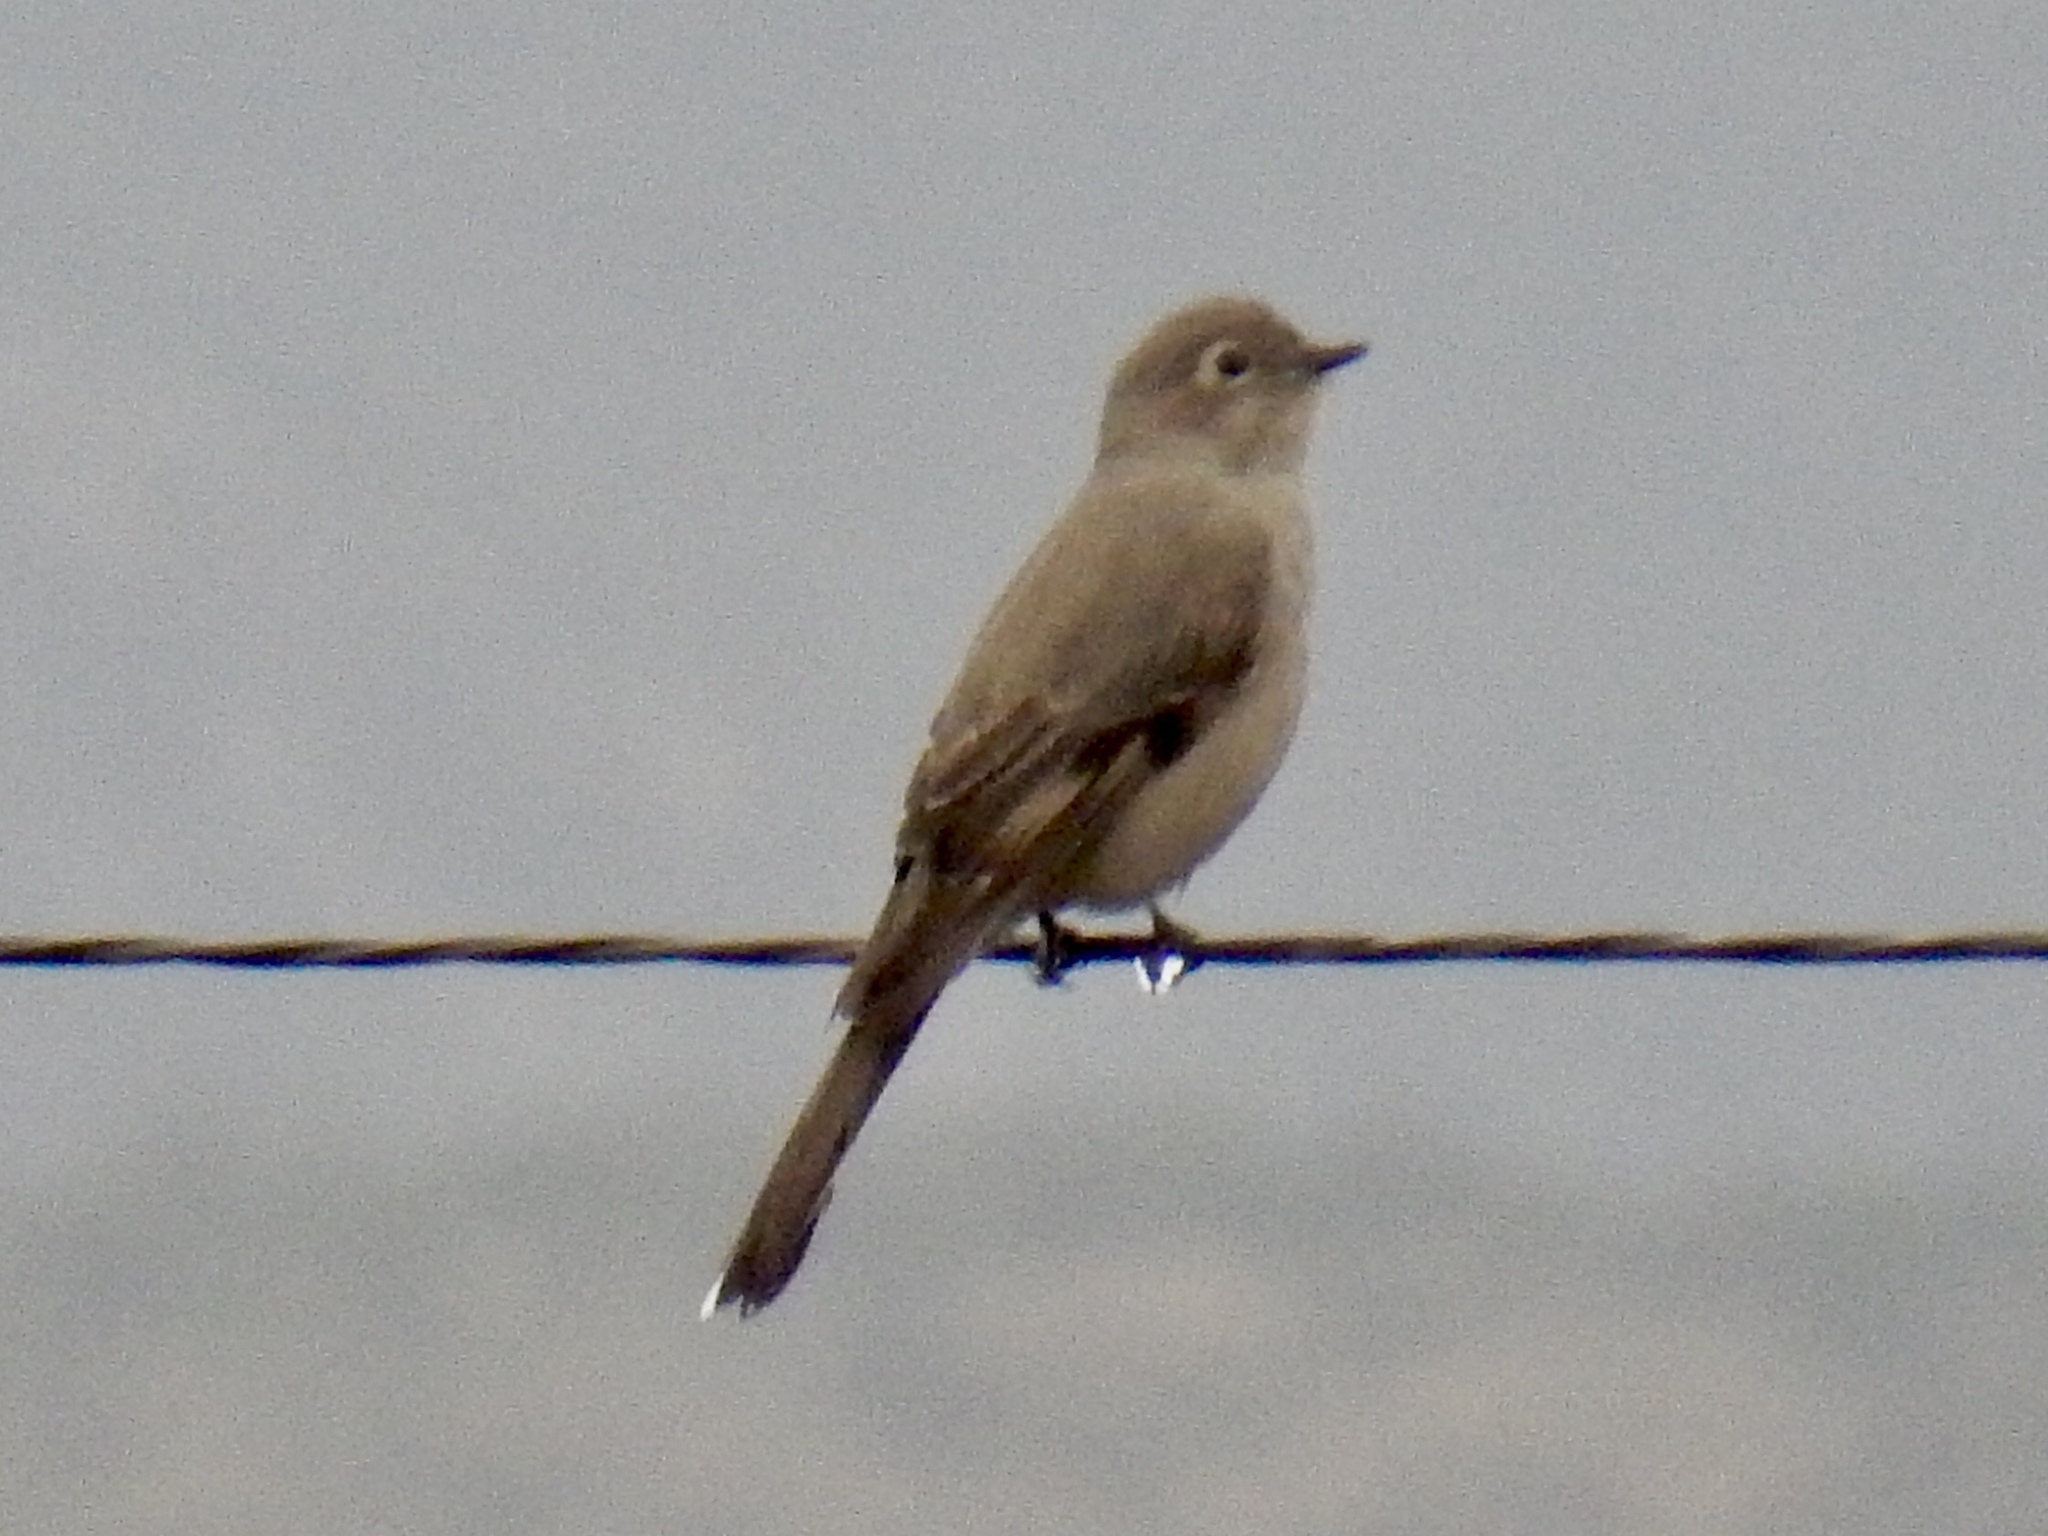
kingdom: Animalia
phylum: Chordata
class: Aves
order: Passeriformes
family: Turdidae
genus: Myadestes
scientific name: Myadestes townsendi
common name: Townsend's solitaire
